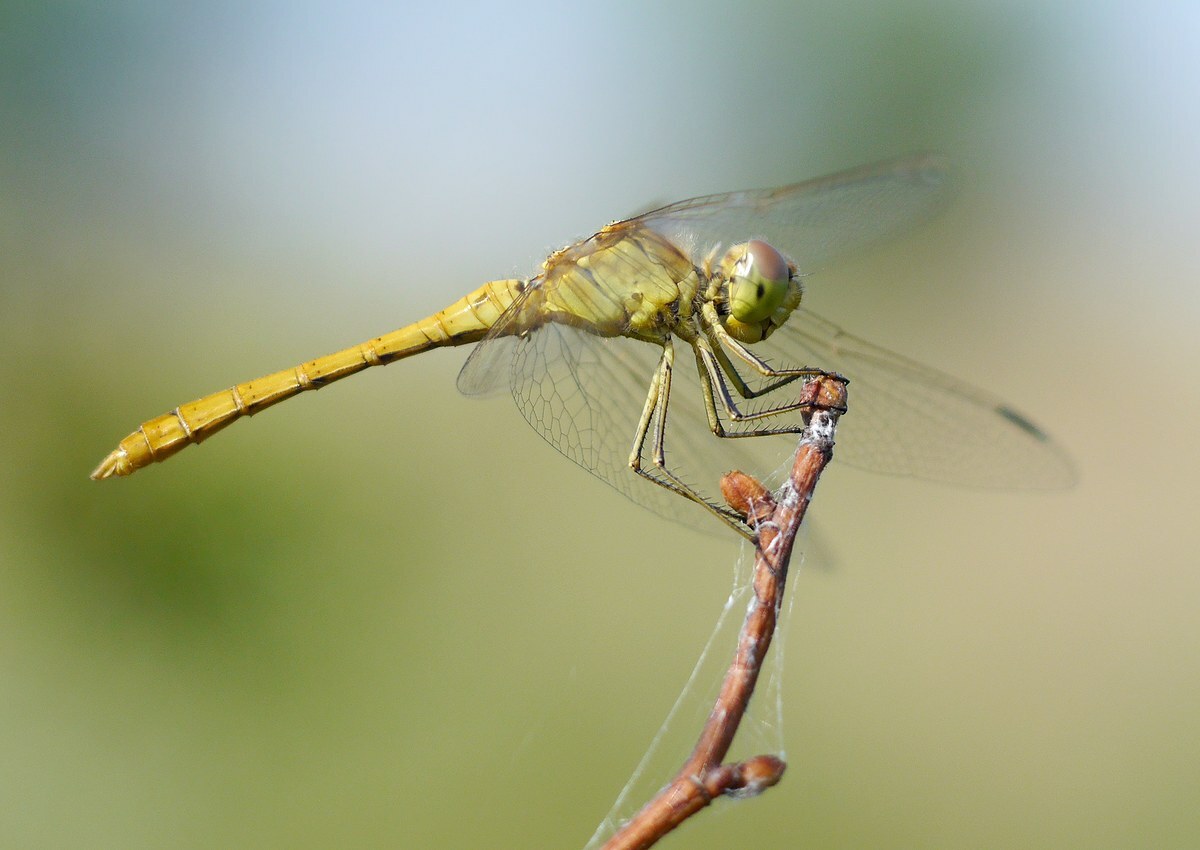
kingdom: Animalia
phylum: Arthropoda
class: Insecta
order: Odonata
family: Libellulidae
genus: Sympetrum
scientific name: Sympetrum meridionale
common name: Southern darter
